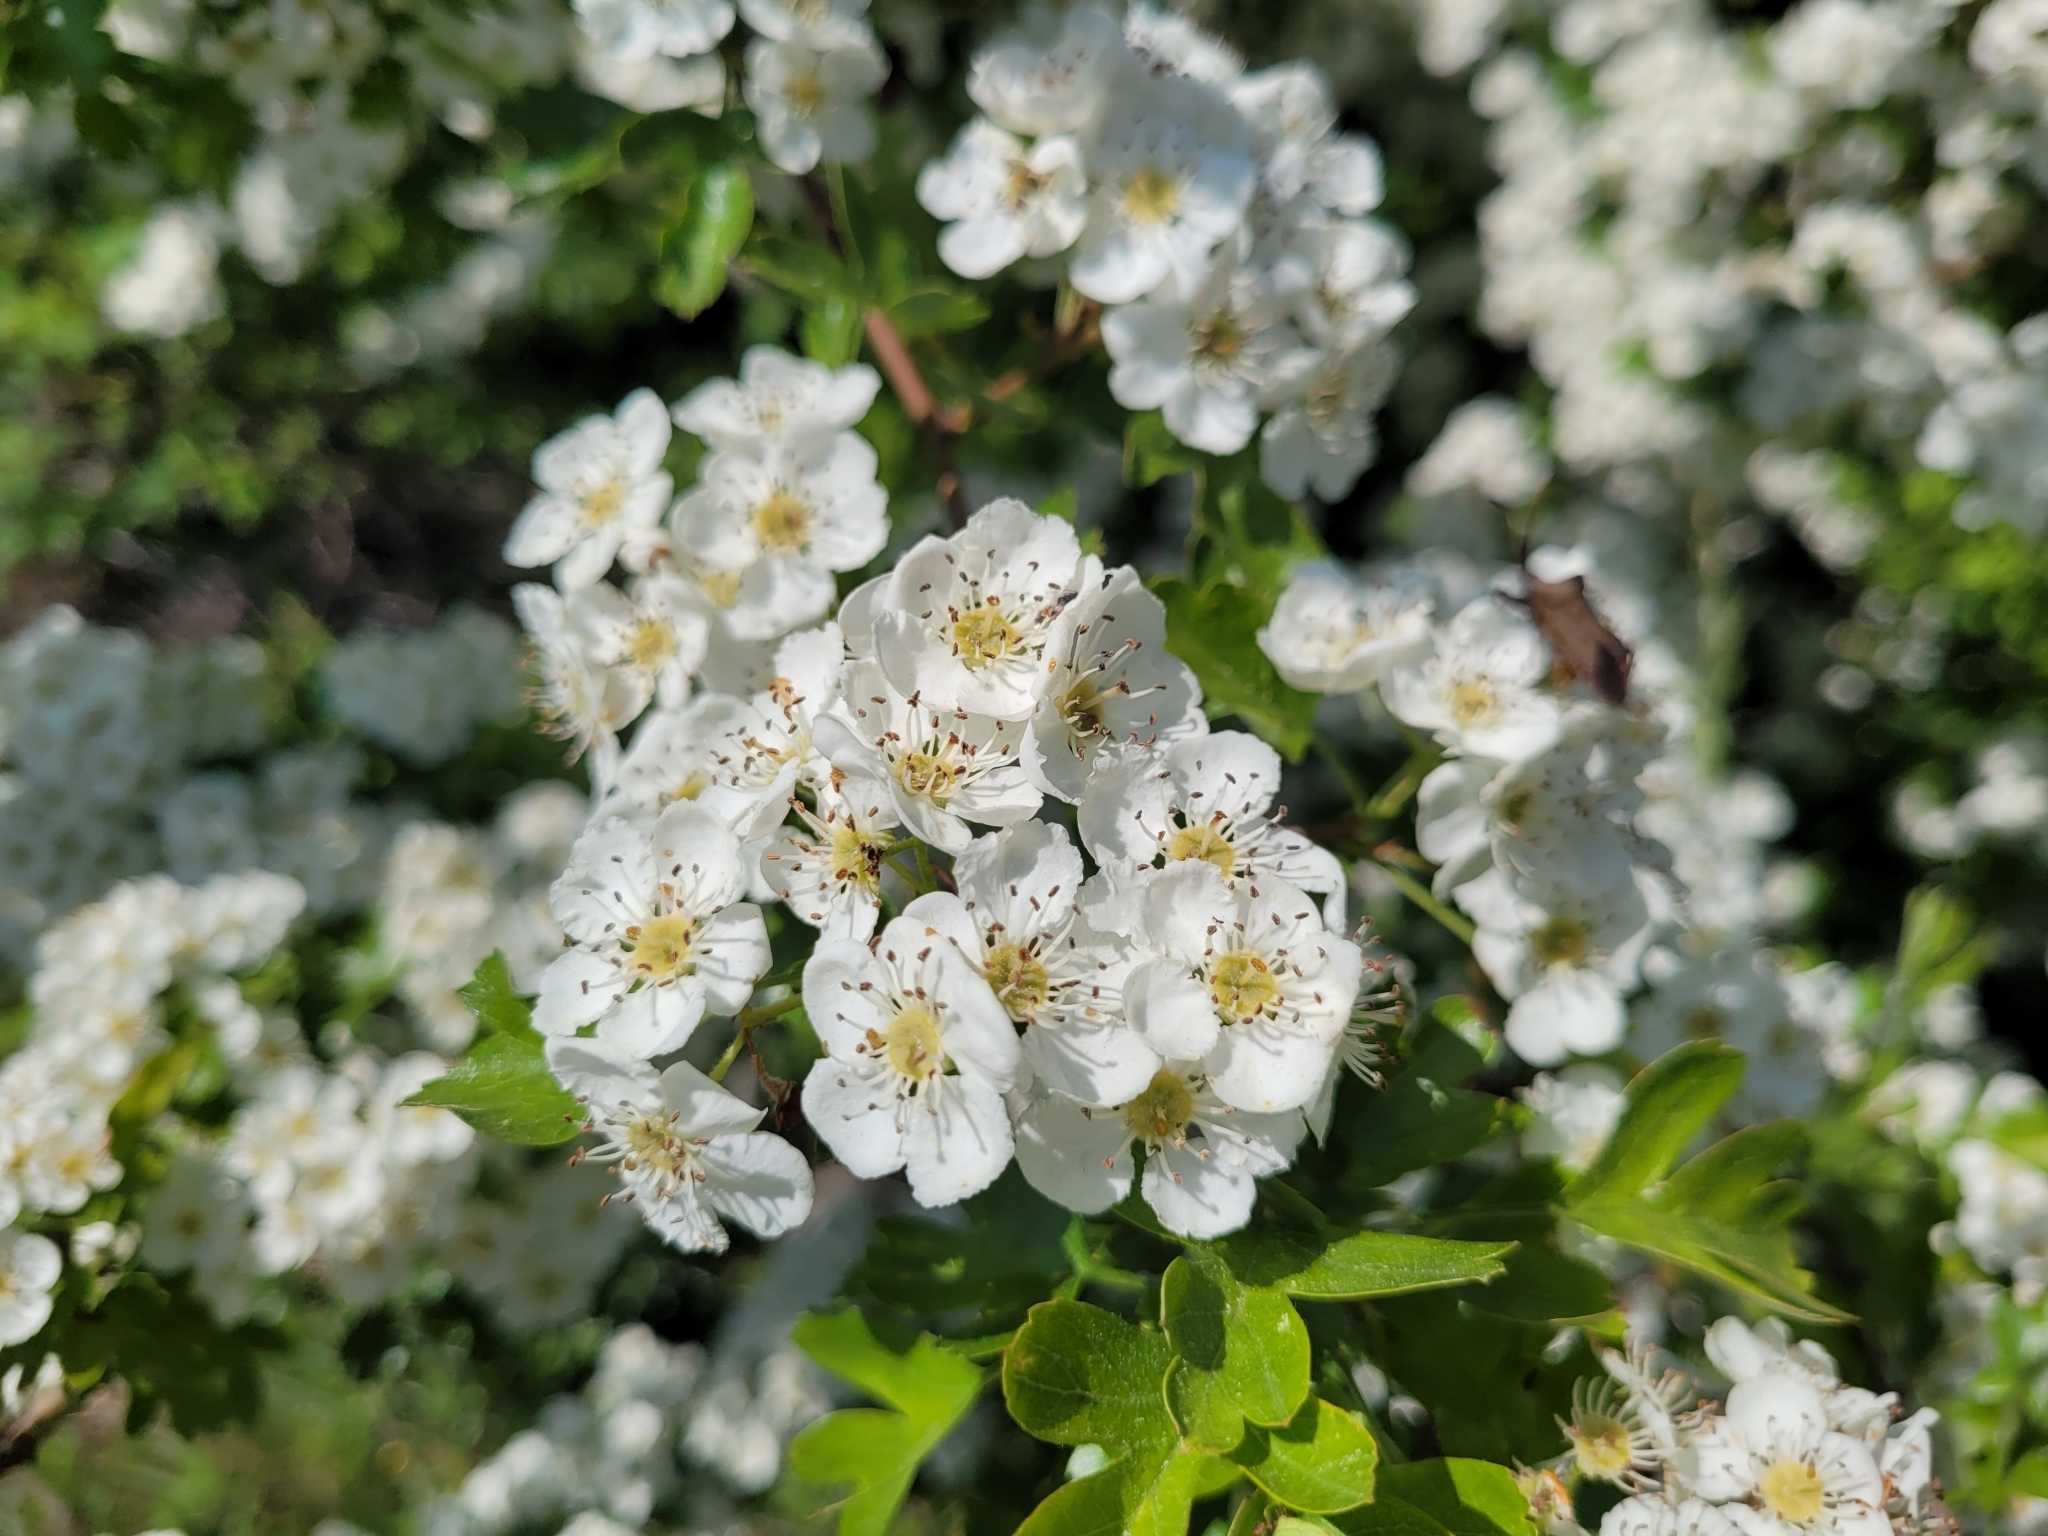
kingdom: Plantae
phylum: Tracheophyta
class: Magnoliopsida
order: Rosales
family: Rosaceae
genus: Crataegus
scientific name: Crataegus monogyna
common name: Hawthorn
